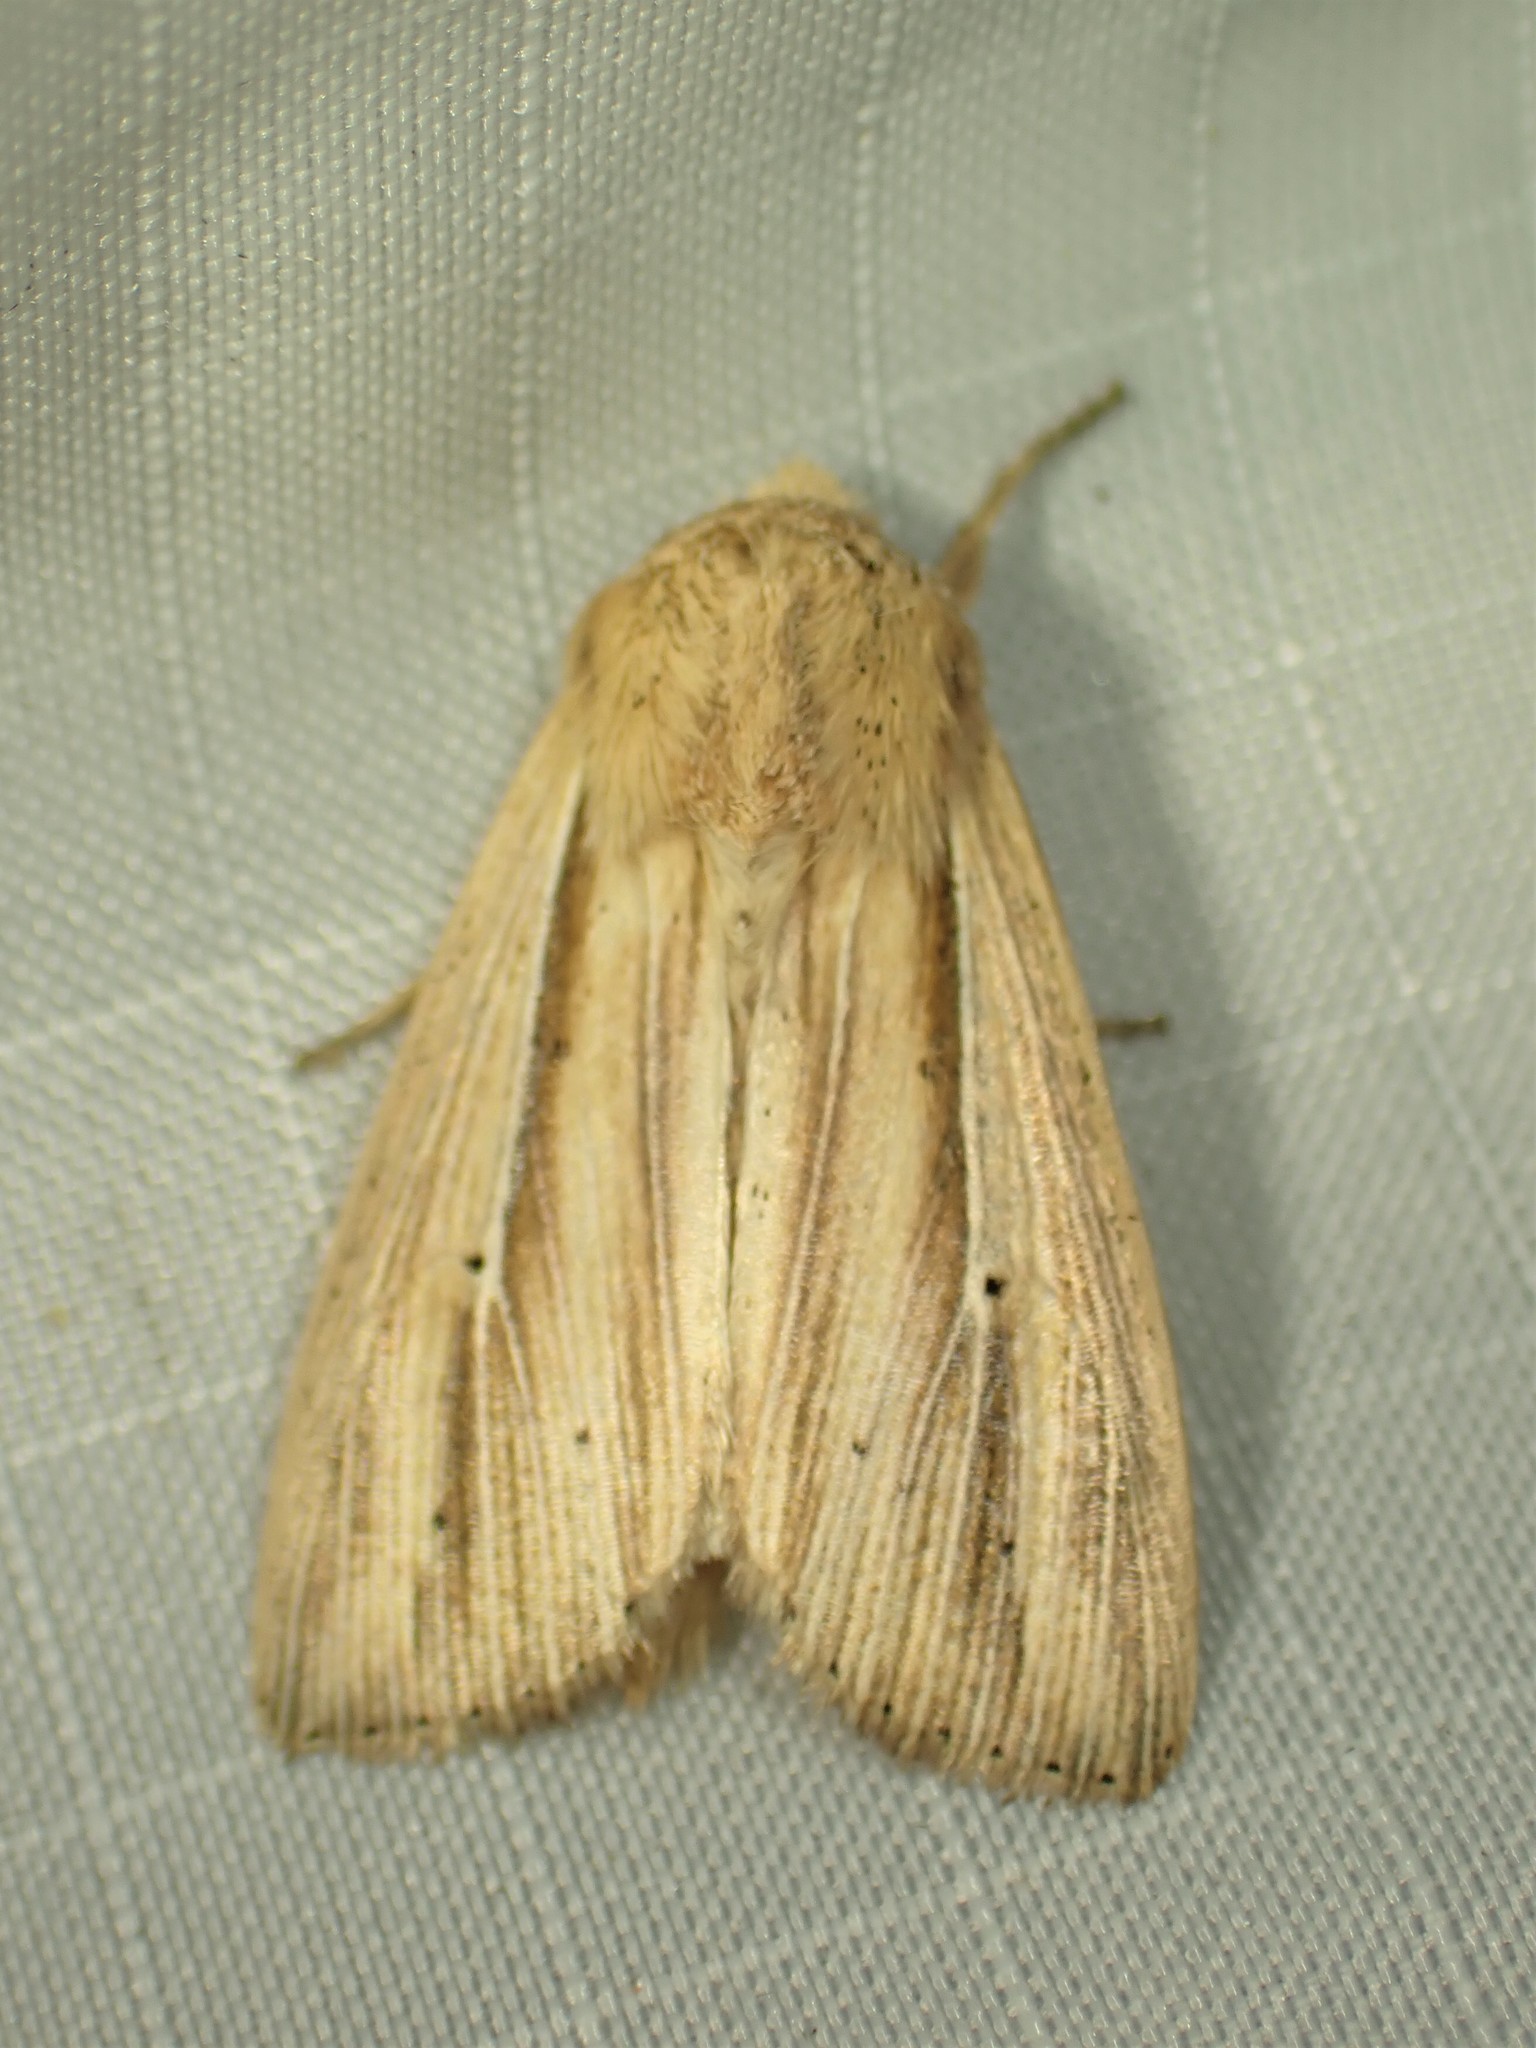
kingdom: Animalia
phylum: Arthropoda
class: Insecta
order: Lepidoptera
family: Noctuidae
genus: Leucania
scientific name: Leucania multilinea
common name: Many-lined wainscot
